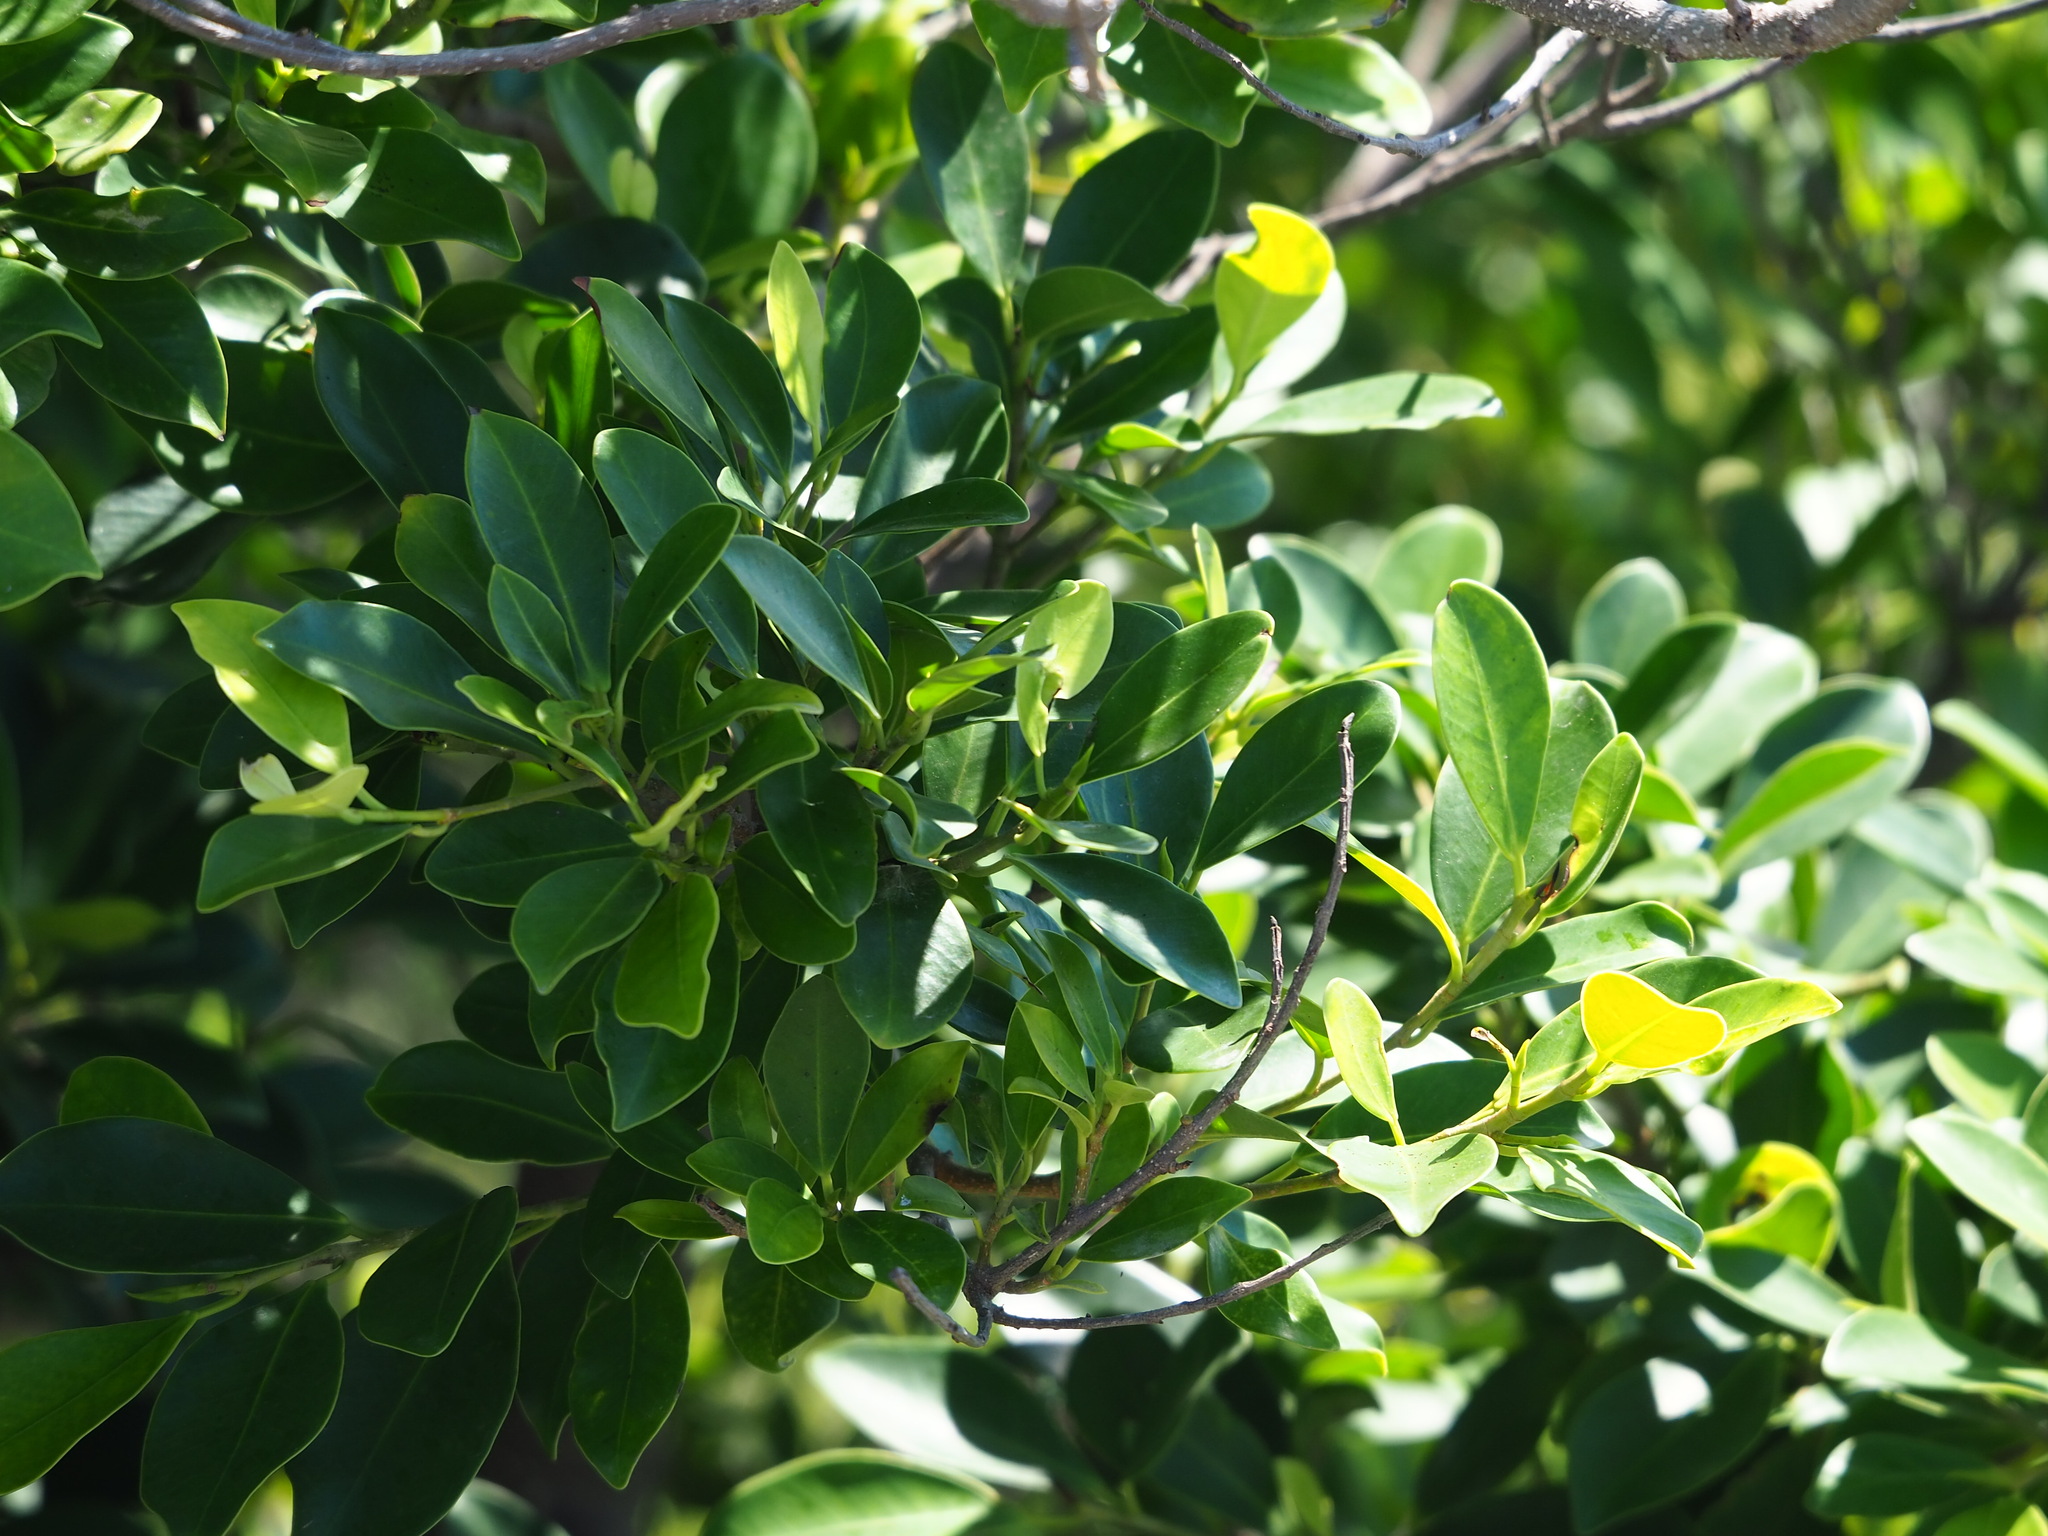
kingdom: Plantae
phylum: Tracheophyta
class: Magnoliopsida
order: Rosales
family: Moraceae
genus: Ficus
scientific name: Ficus microcarpa
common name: Chinese banyan
